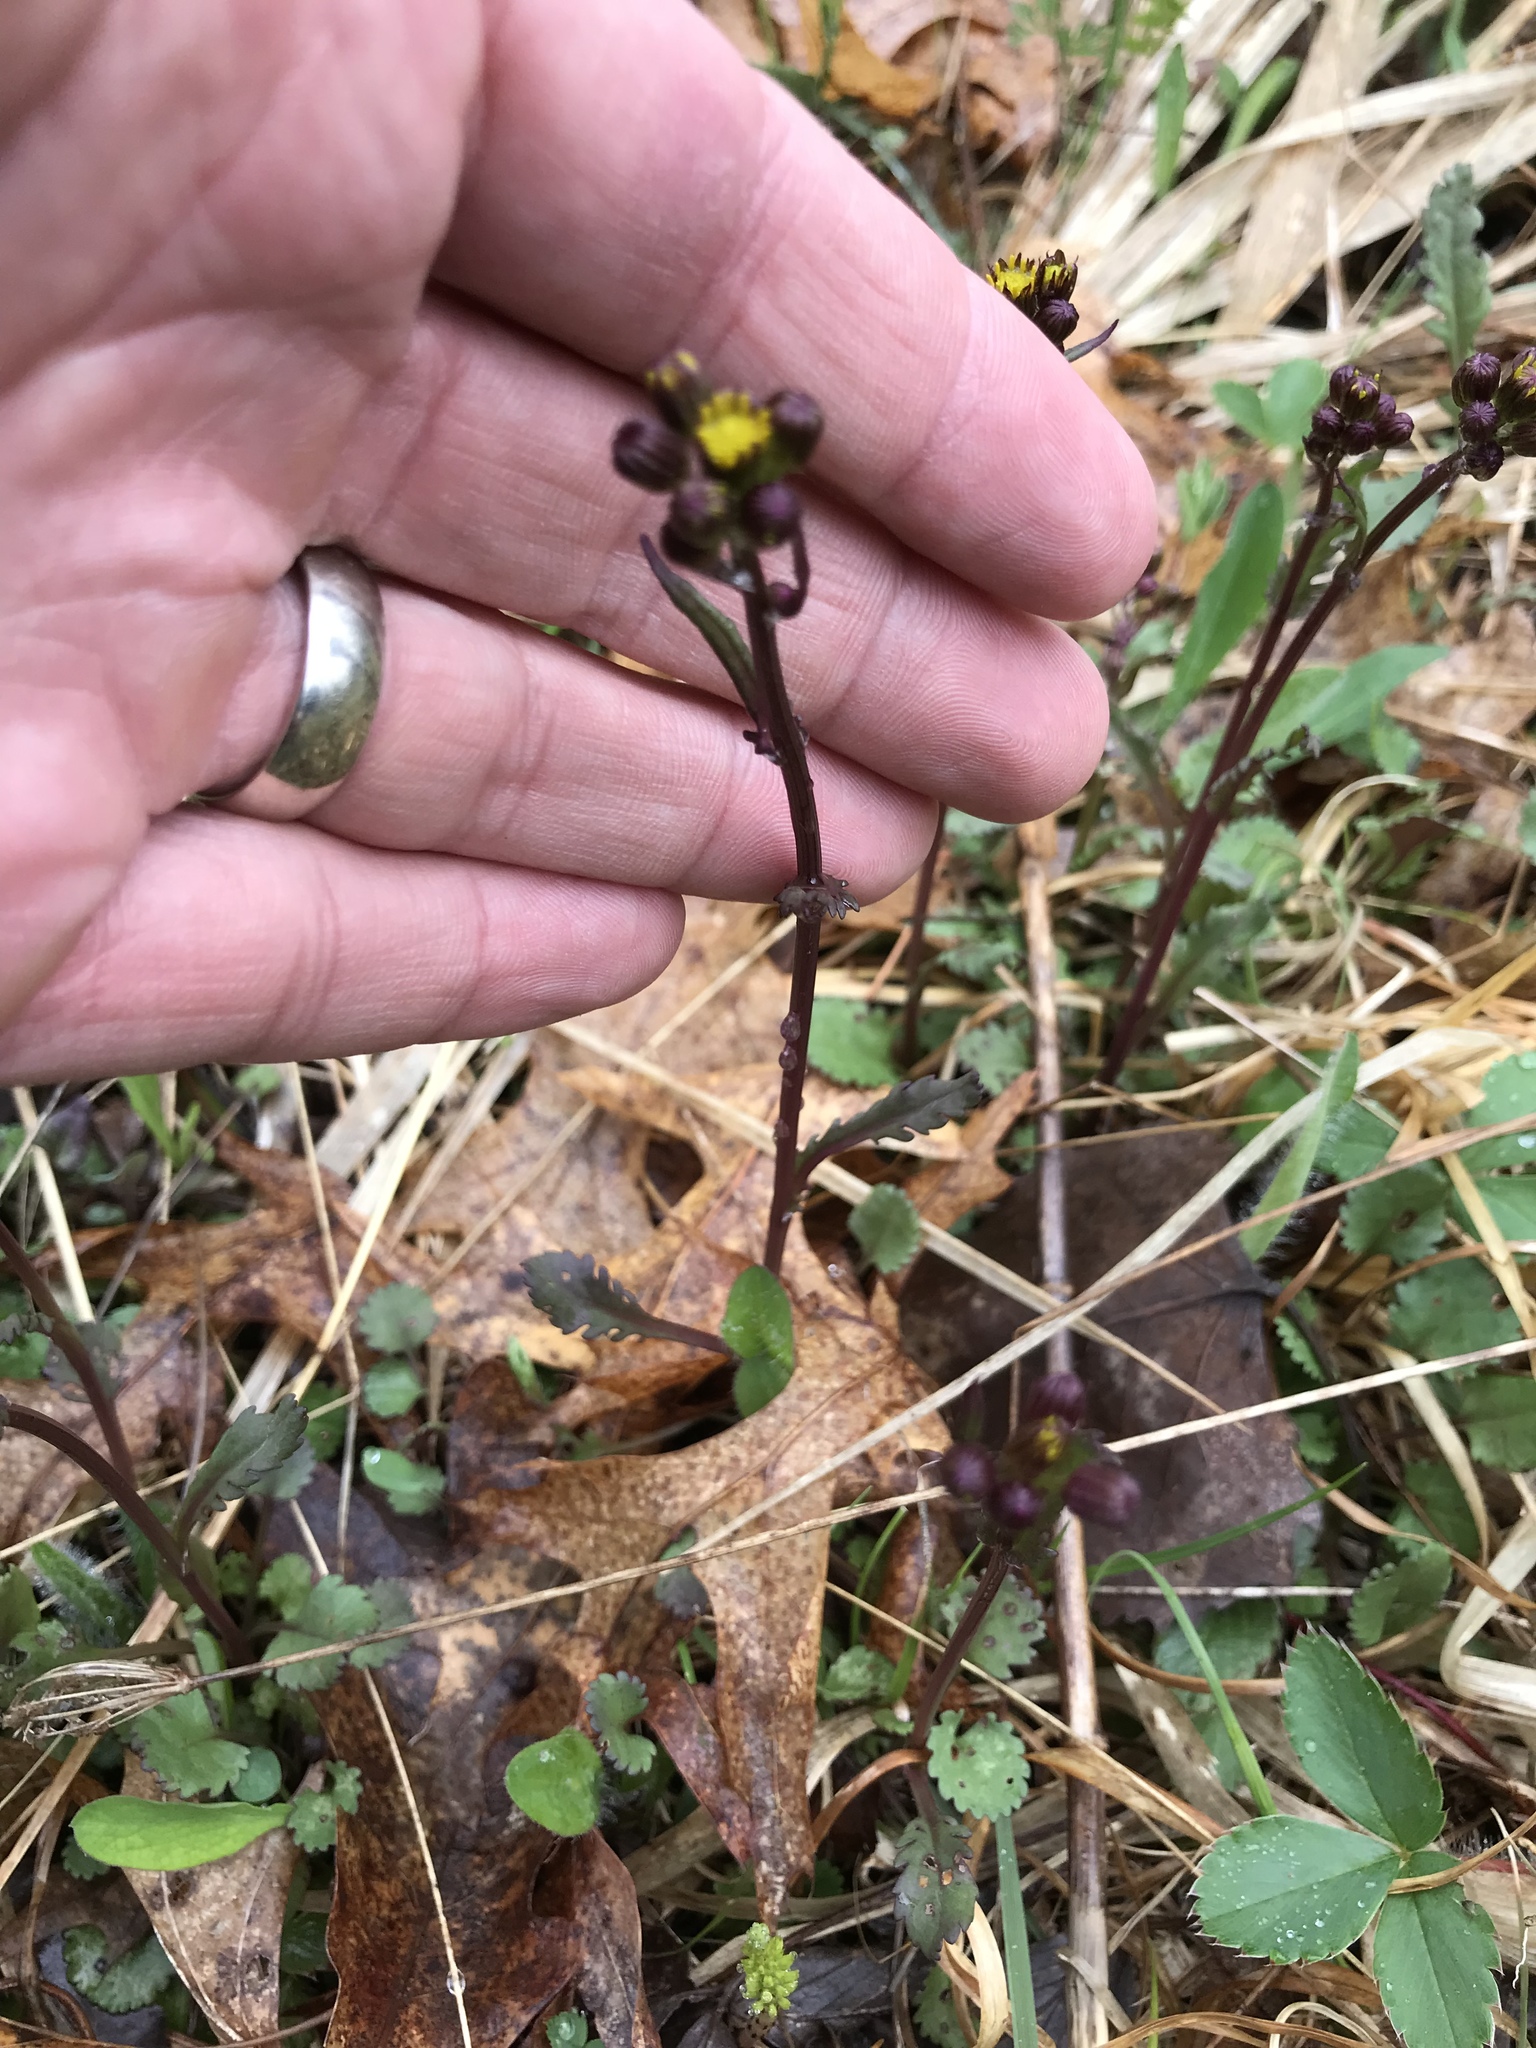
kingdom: Plantae
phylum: Tracheophyta
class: Magnoliopsida
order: Asterales
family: Asteraceae
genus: Packera
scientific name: Packera aurea
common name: Golden groundsel
